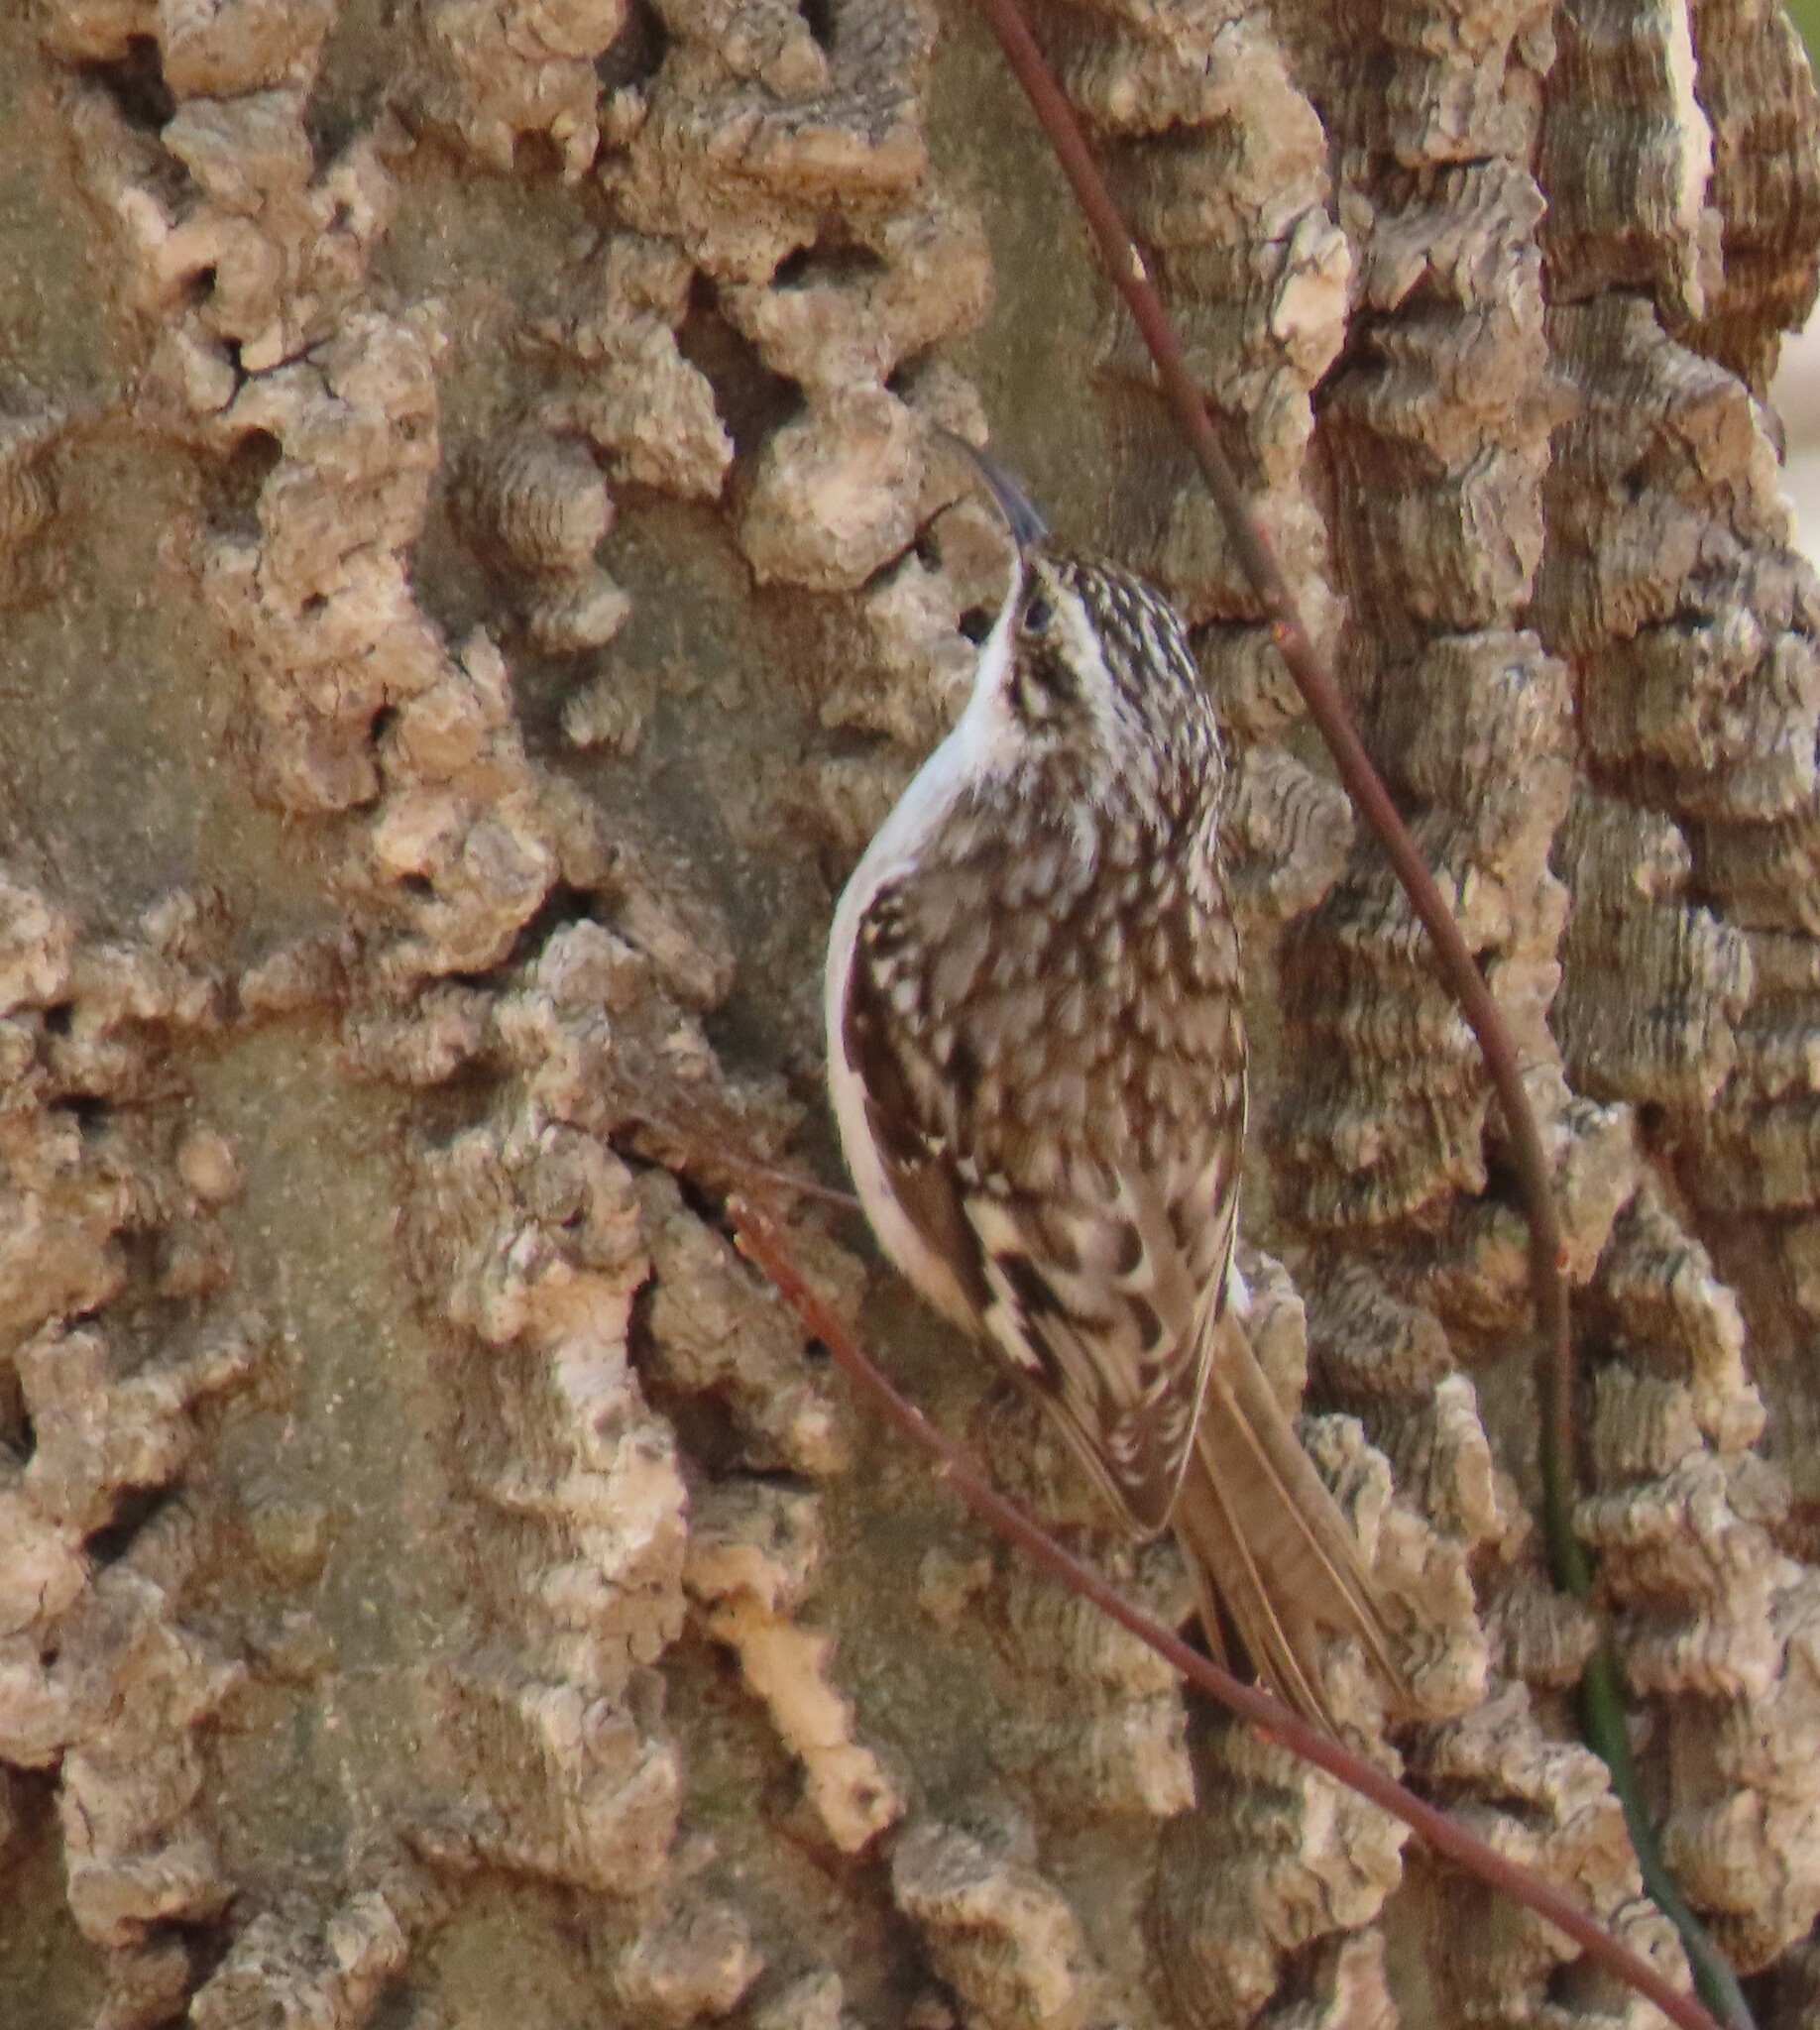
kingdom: Animalia
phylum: Chordata
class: Aves
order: Passeriformes
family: Certhiidae
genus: Certhia
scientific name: Certhia americana
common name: Brown creeper
